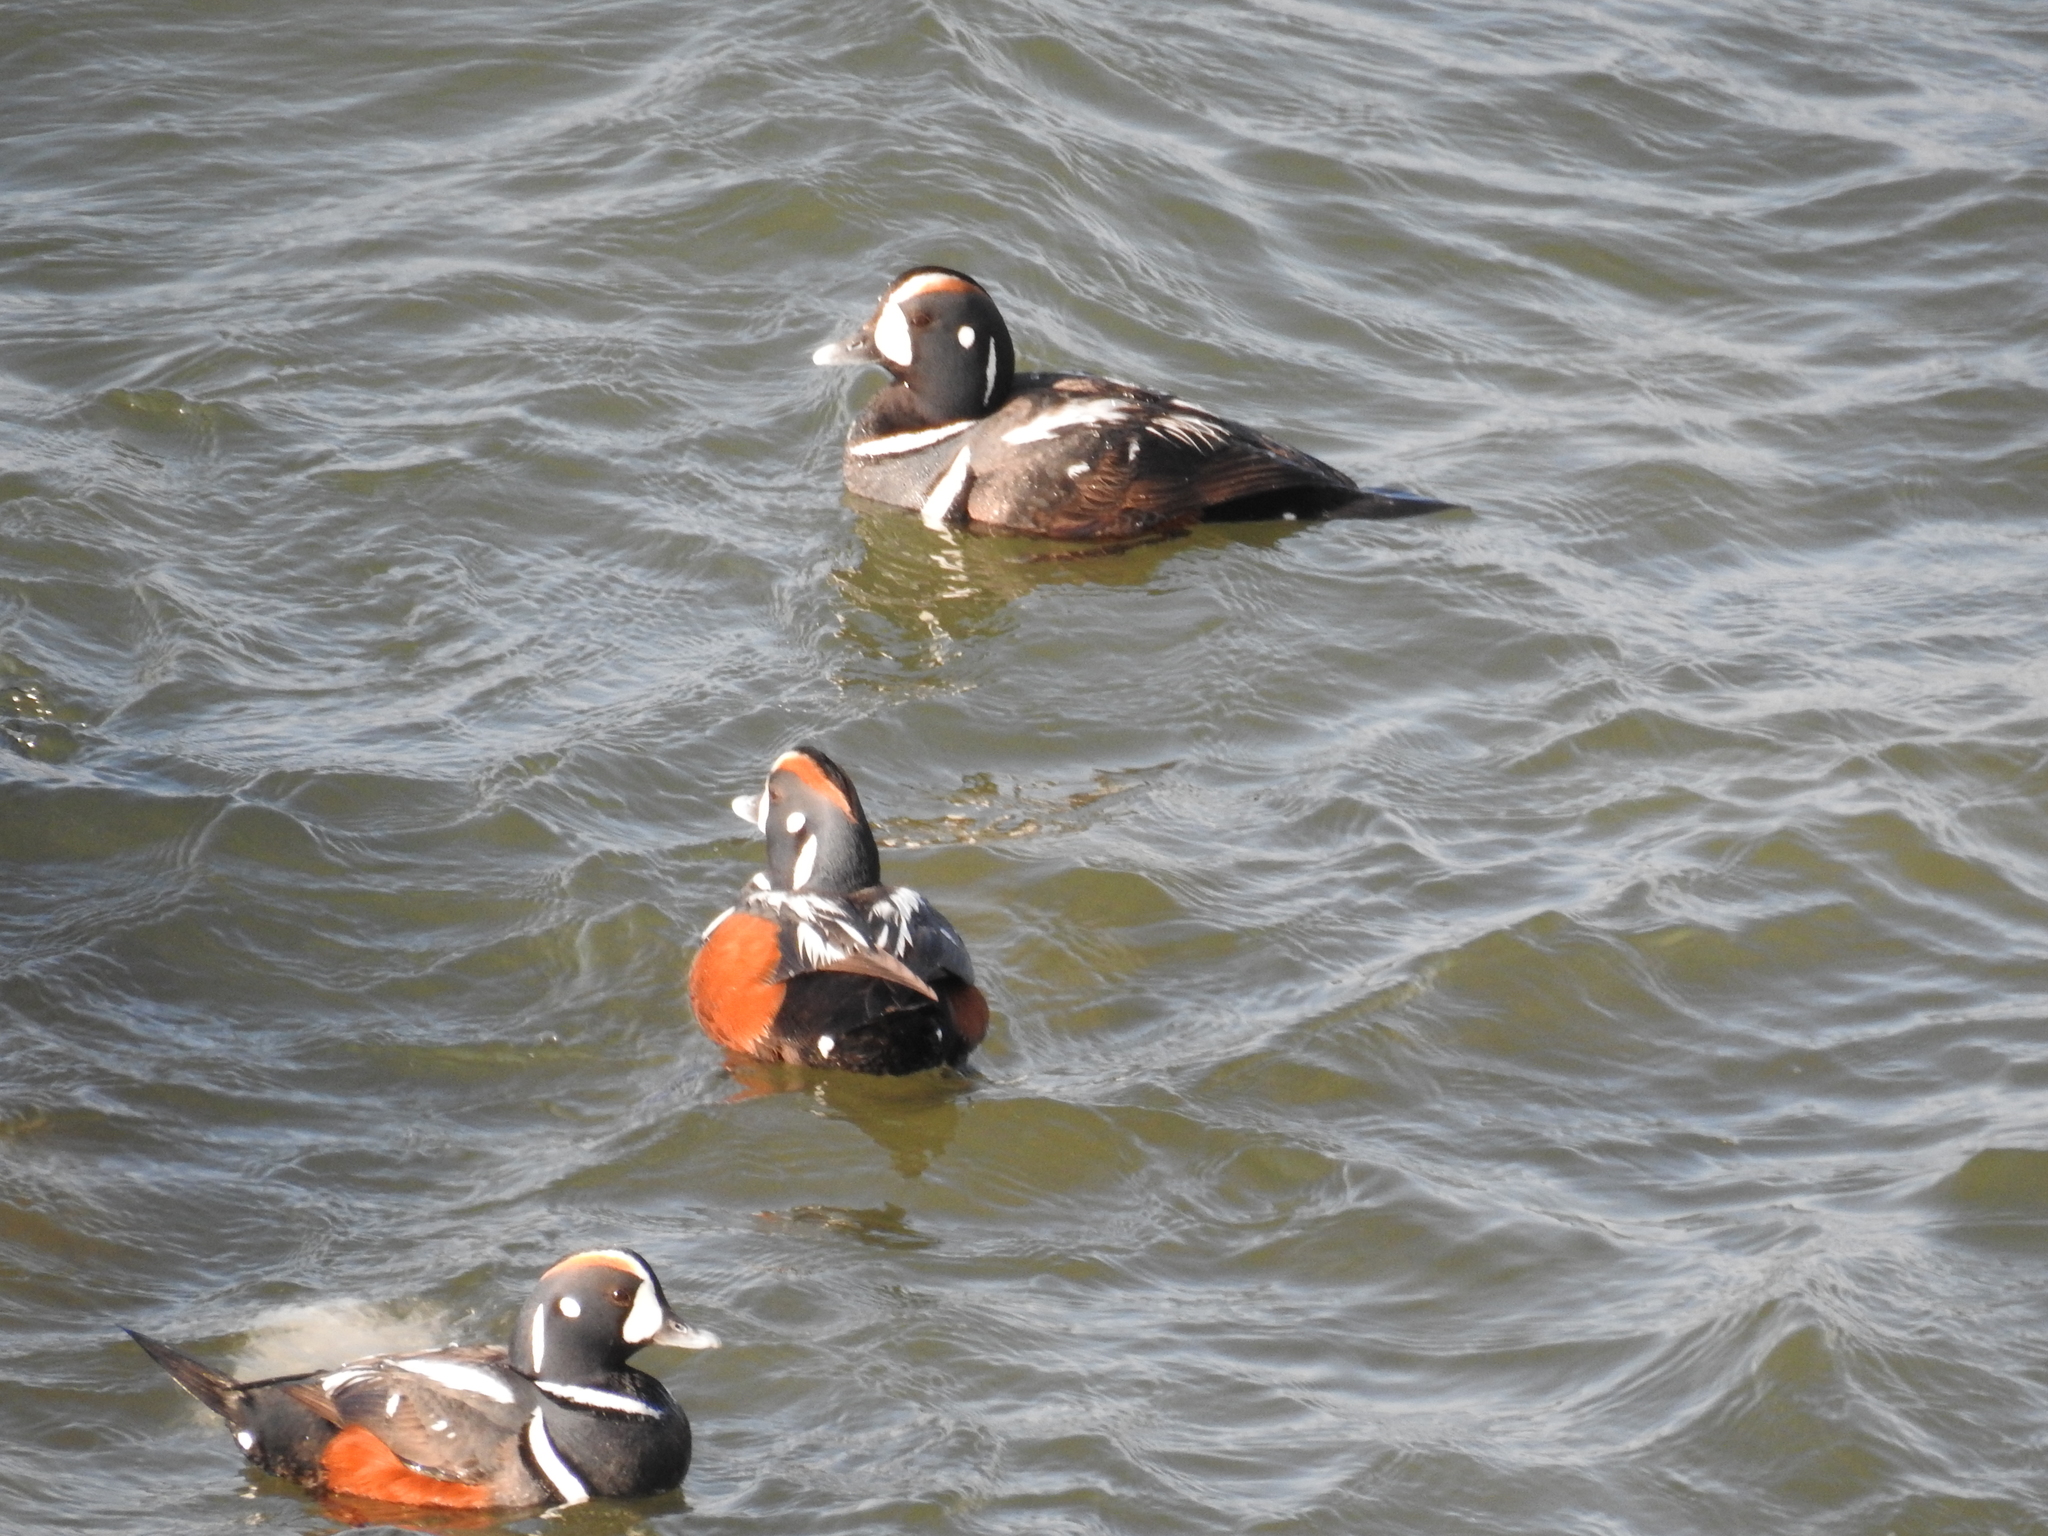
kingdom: Animalia
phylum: Chordata
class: Aves
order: Anseriformes
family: Anatidae
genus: Histrionicus
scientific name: Histrionicus histrionicus
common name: Harlequin duck
